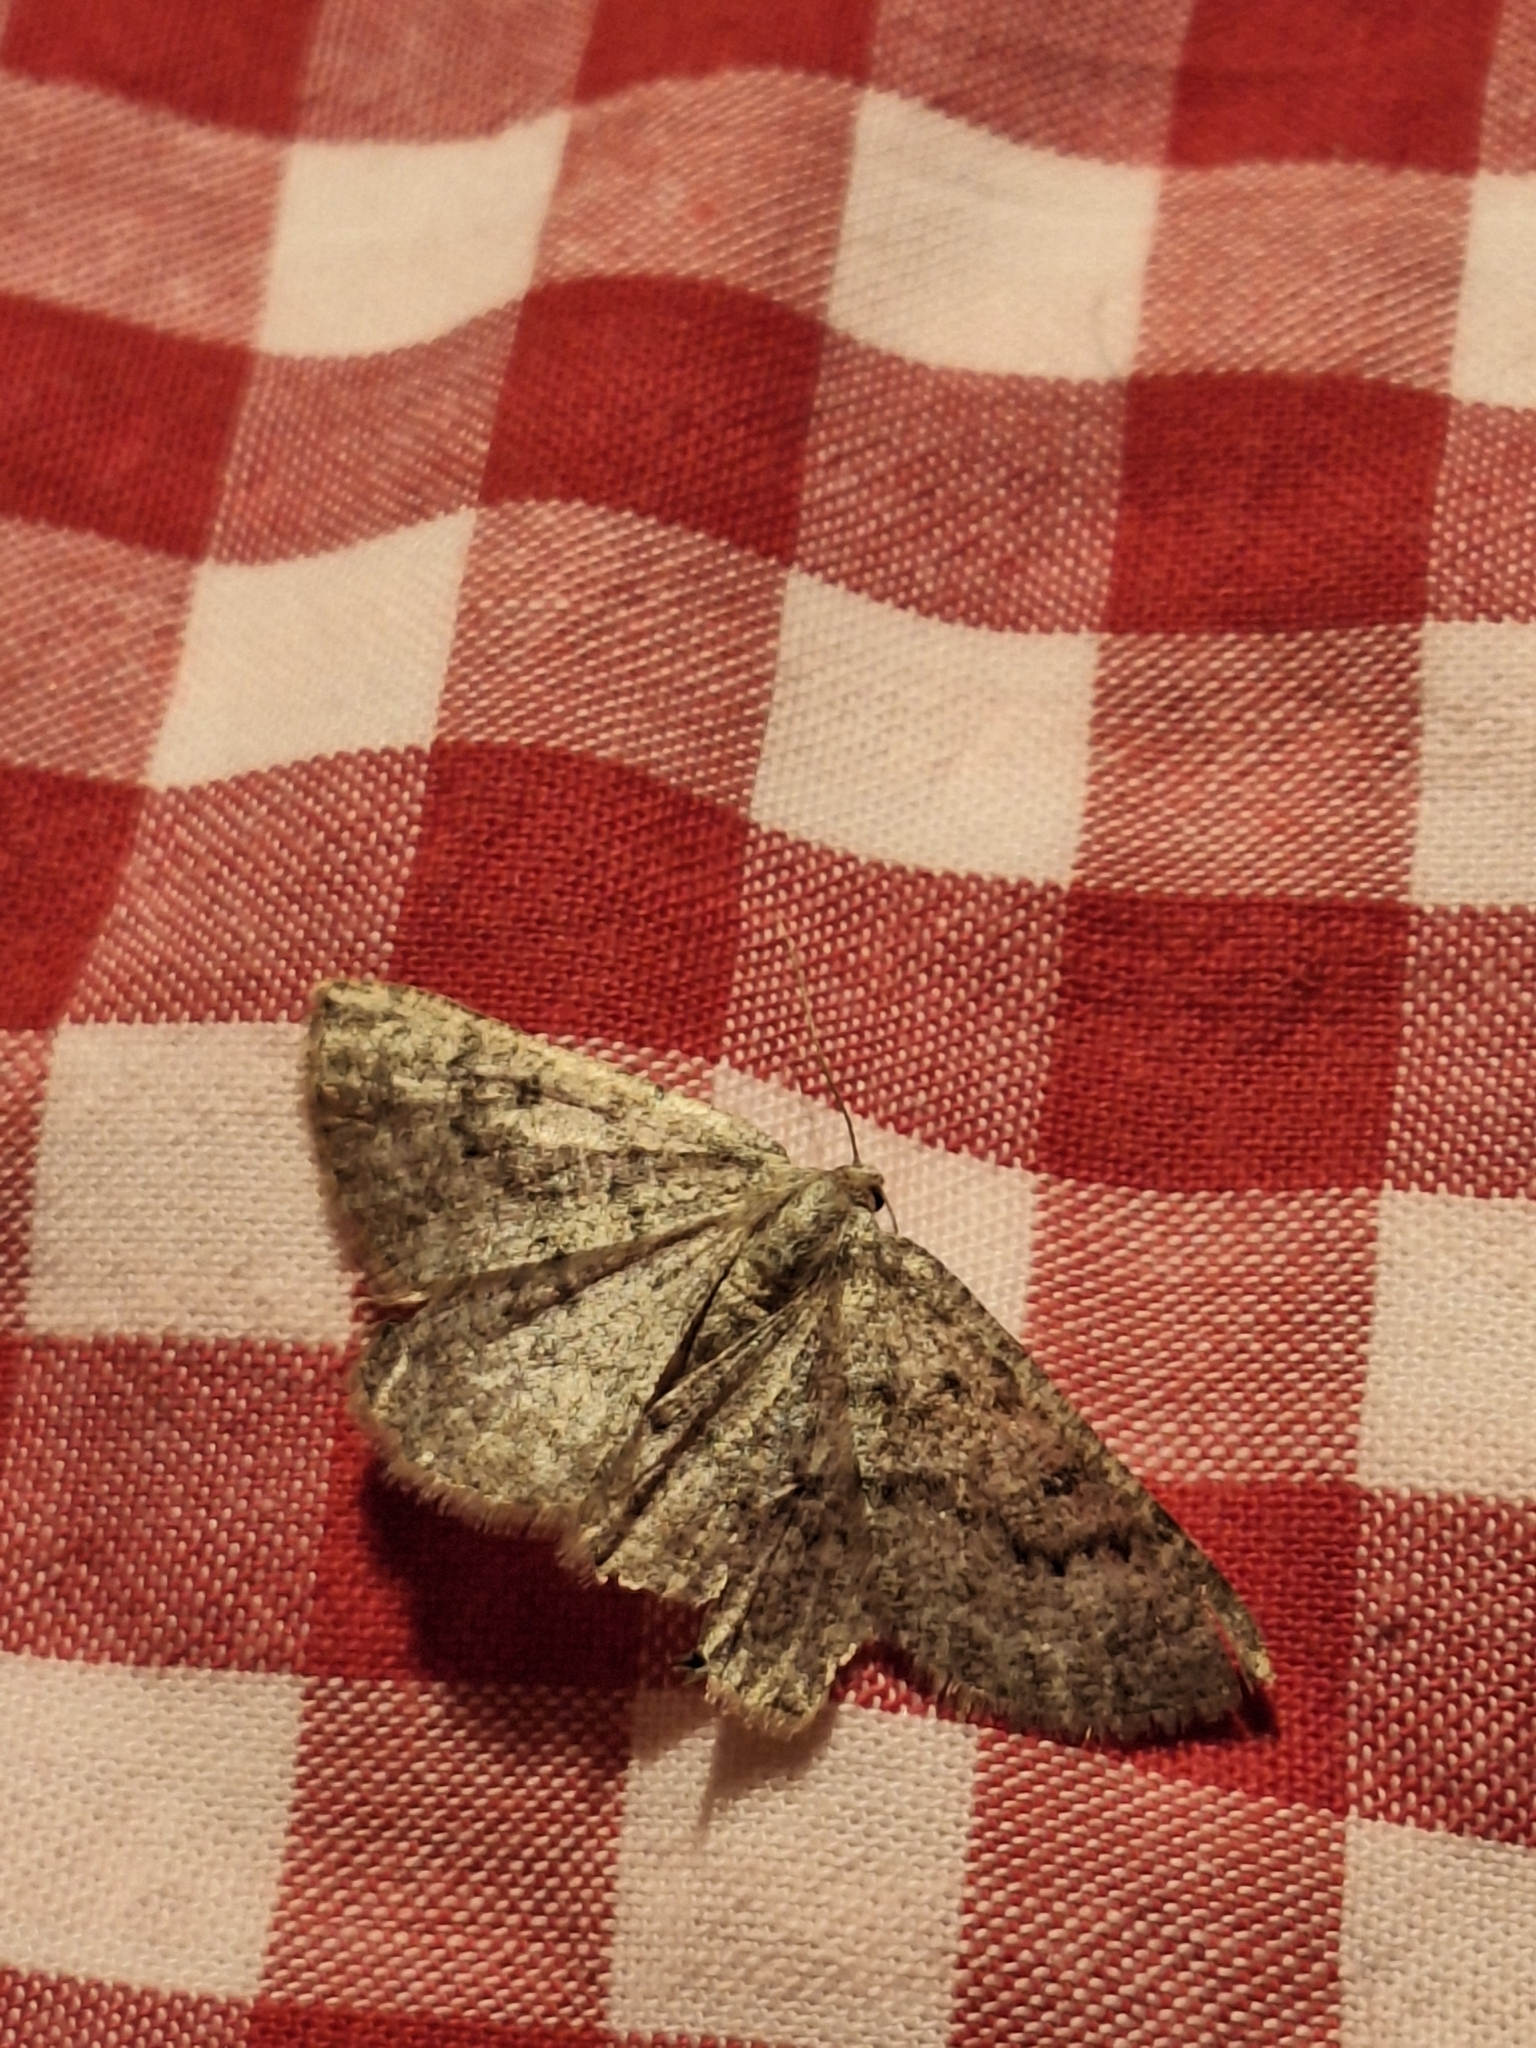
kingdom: Animalia
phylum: Arthropoda
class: Insecta
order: Lepidoptera
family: Geometridae
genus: Gnophos
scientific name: Gnophos obfuscata
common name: Scottish annulet
